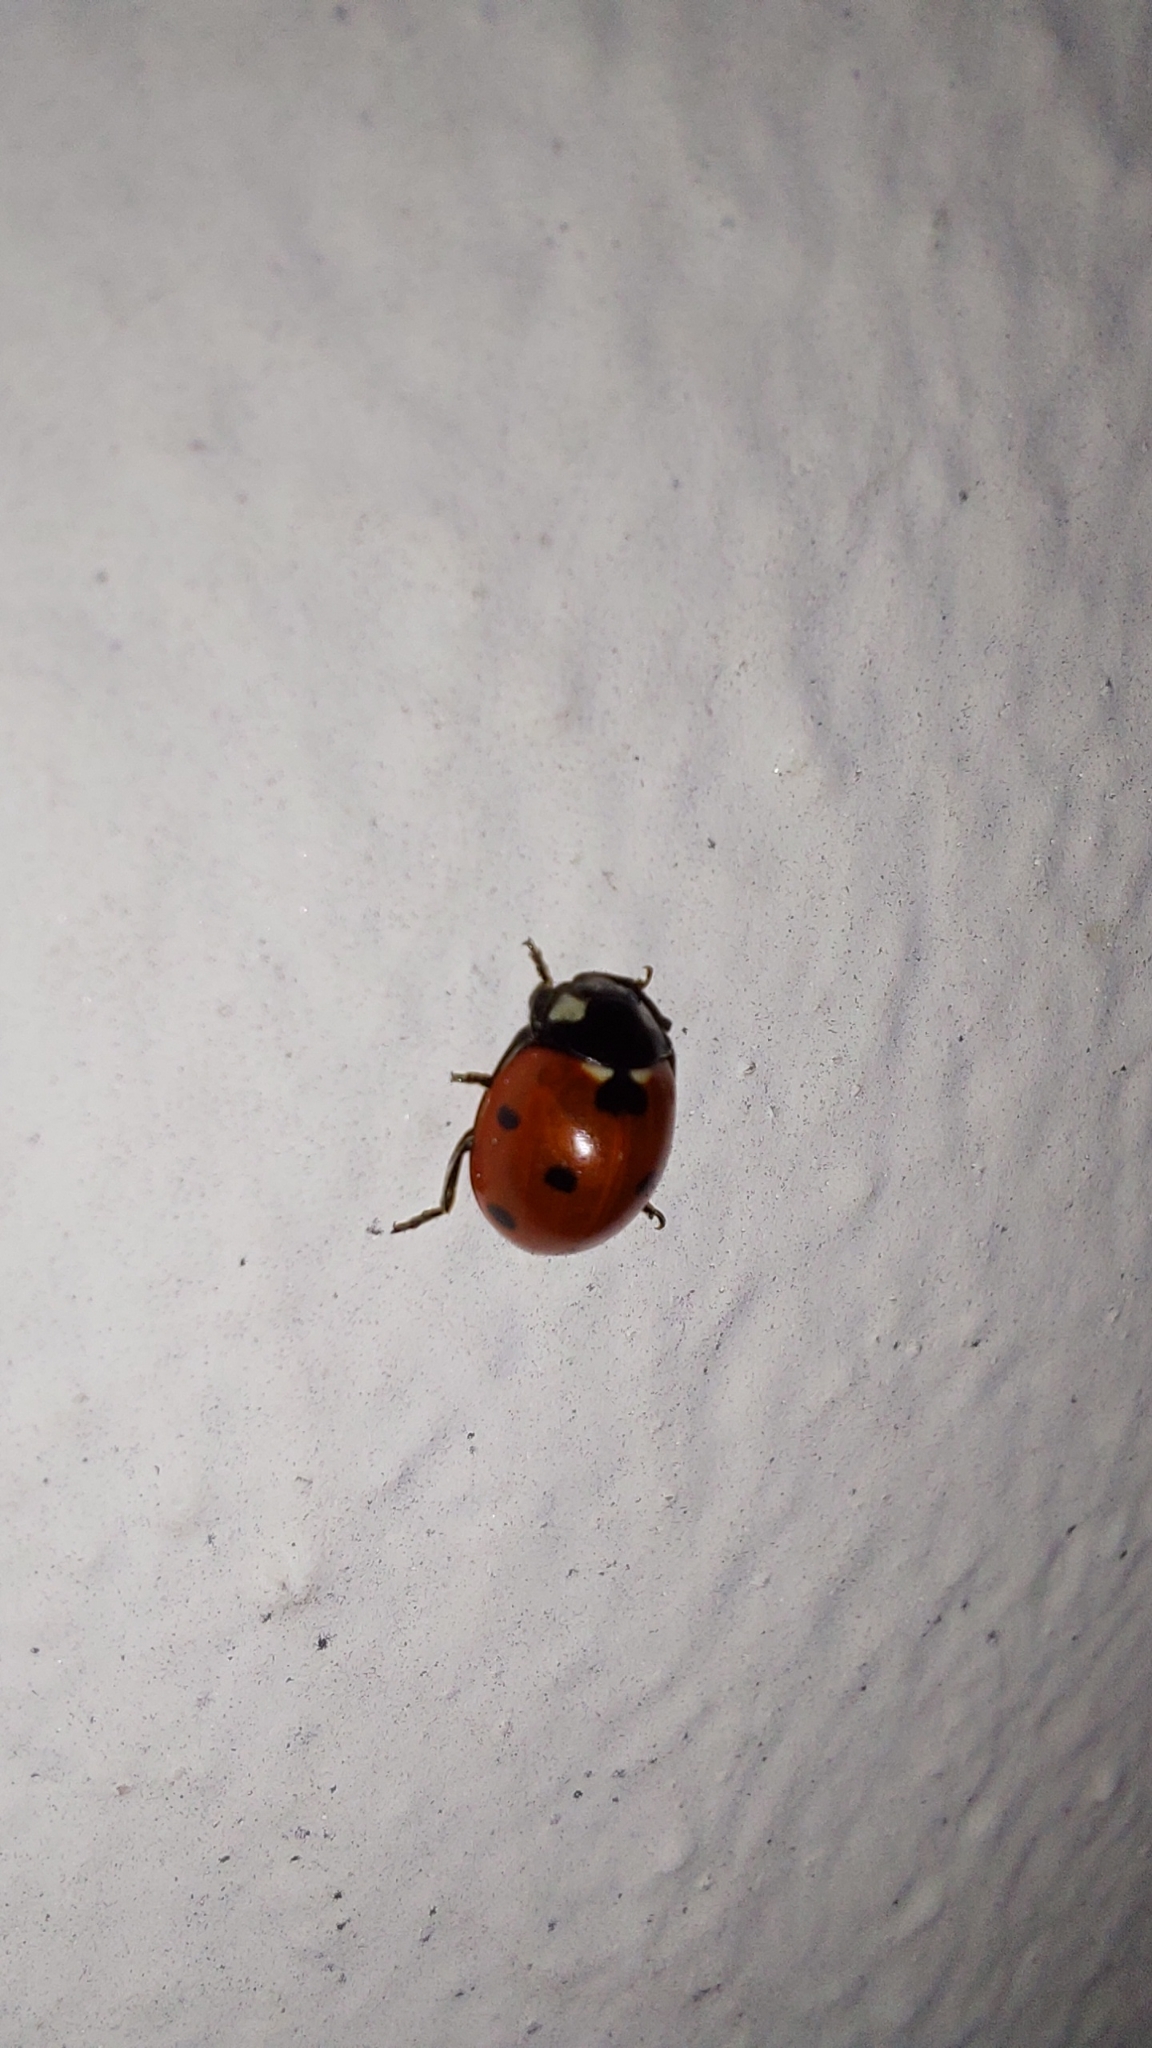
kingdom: Animalia
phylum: Arthropoda
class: Insecta
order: Coleoptera
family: Coccinellidae
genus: Coccinella
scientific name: Coccinella septempunctata
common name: Sevenspotted lady beetle
